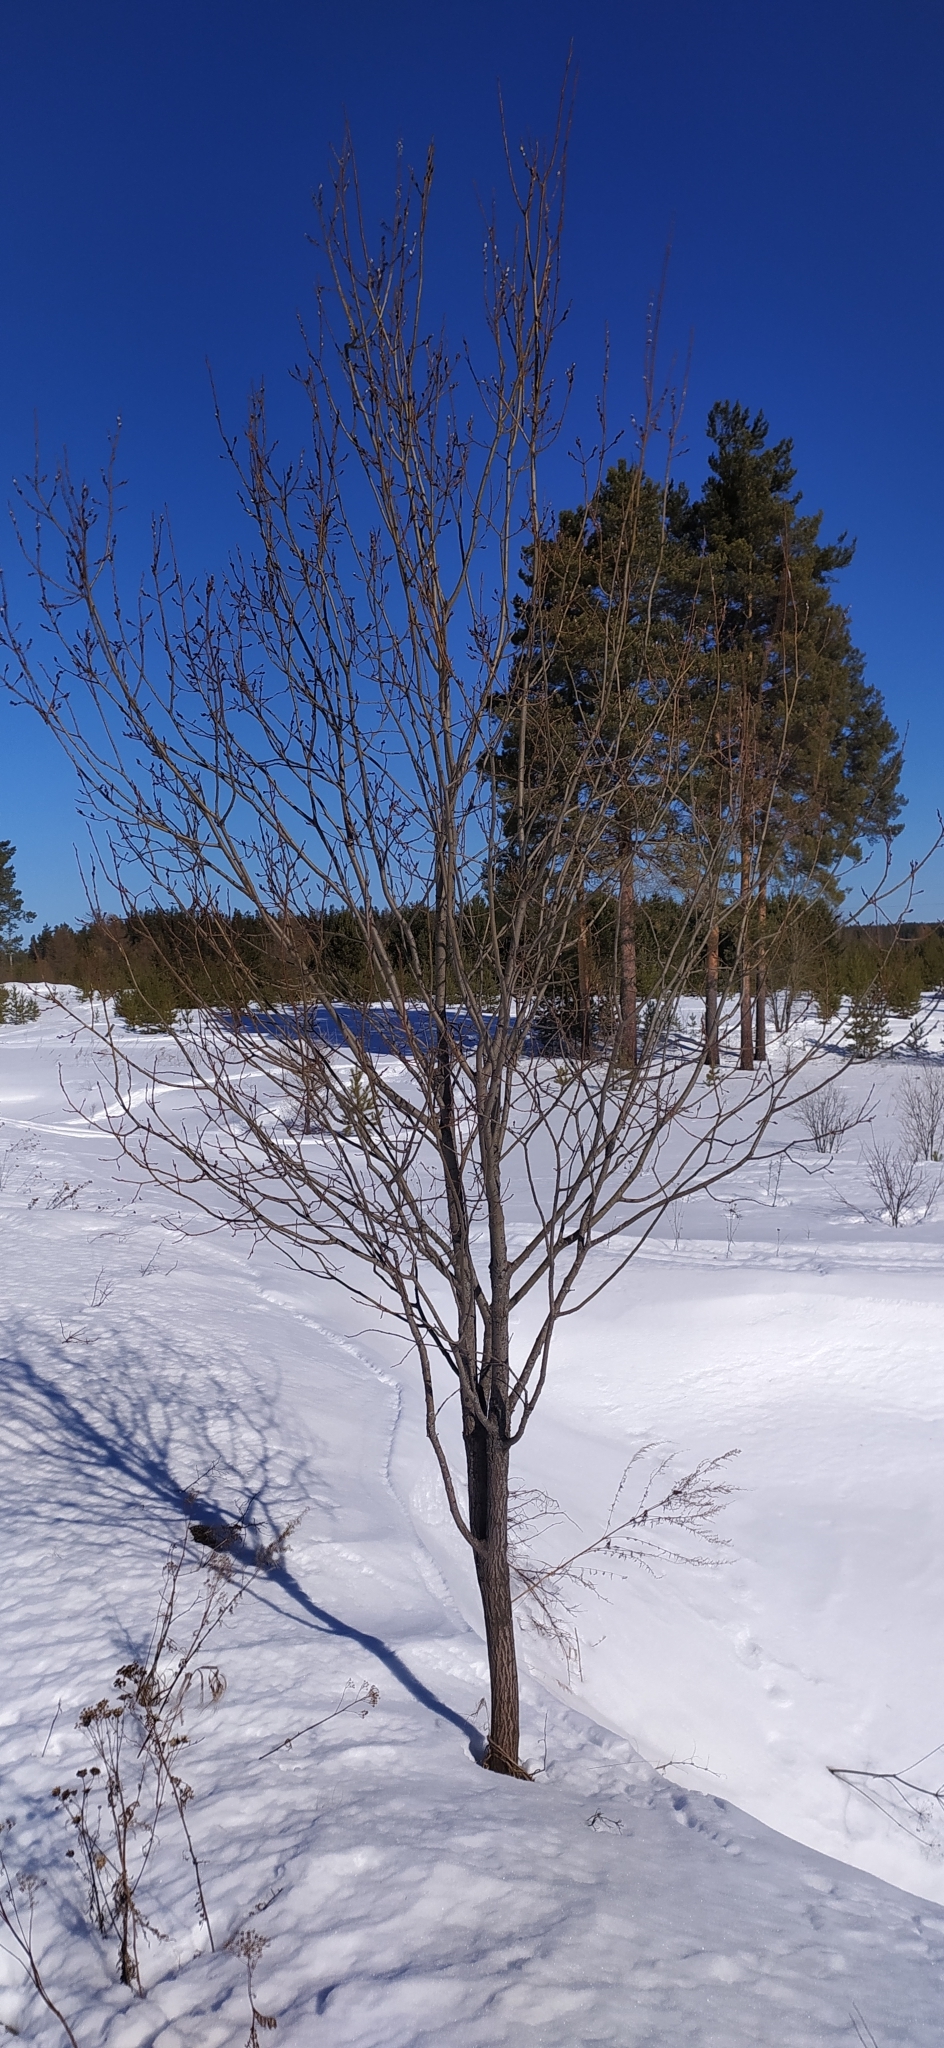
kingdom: Plantae
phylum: Tracheophyta
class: Magnoliopsida
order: Malpighiales
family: Salicaceae
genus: Salix
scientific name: Salix
